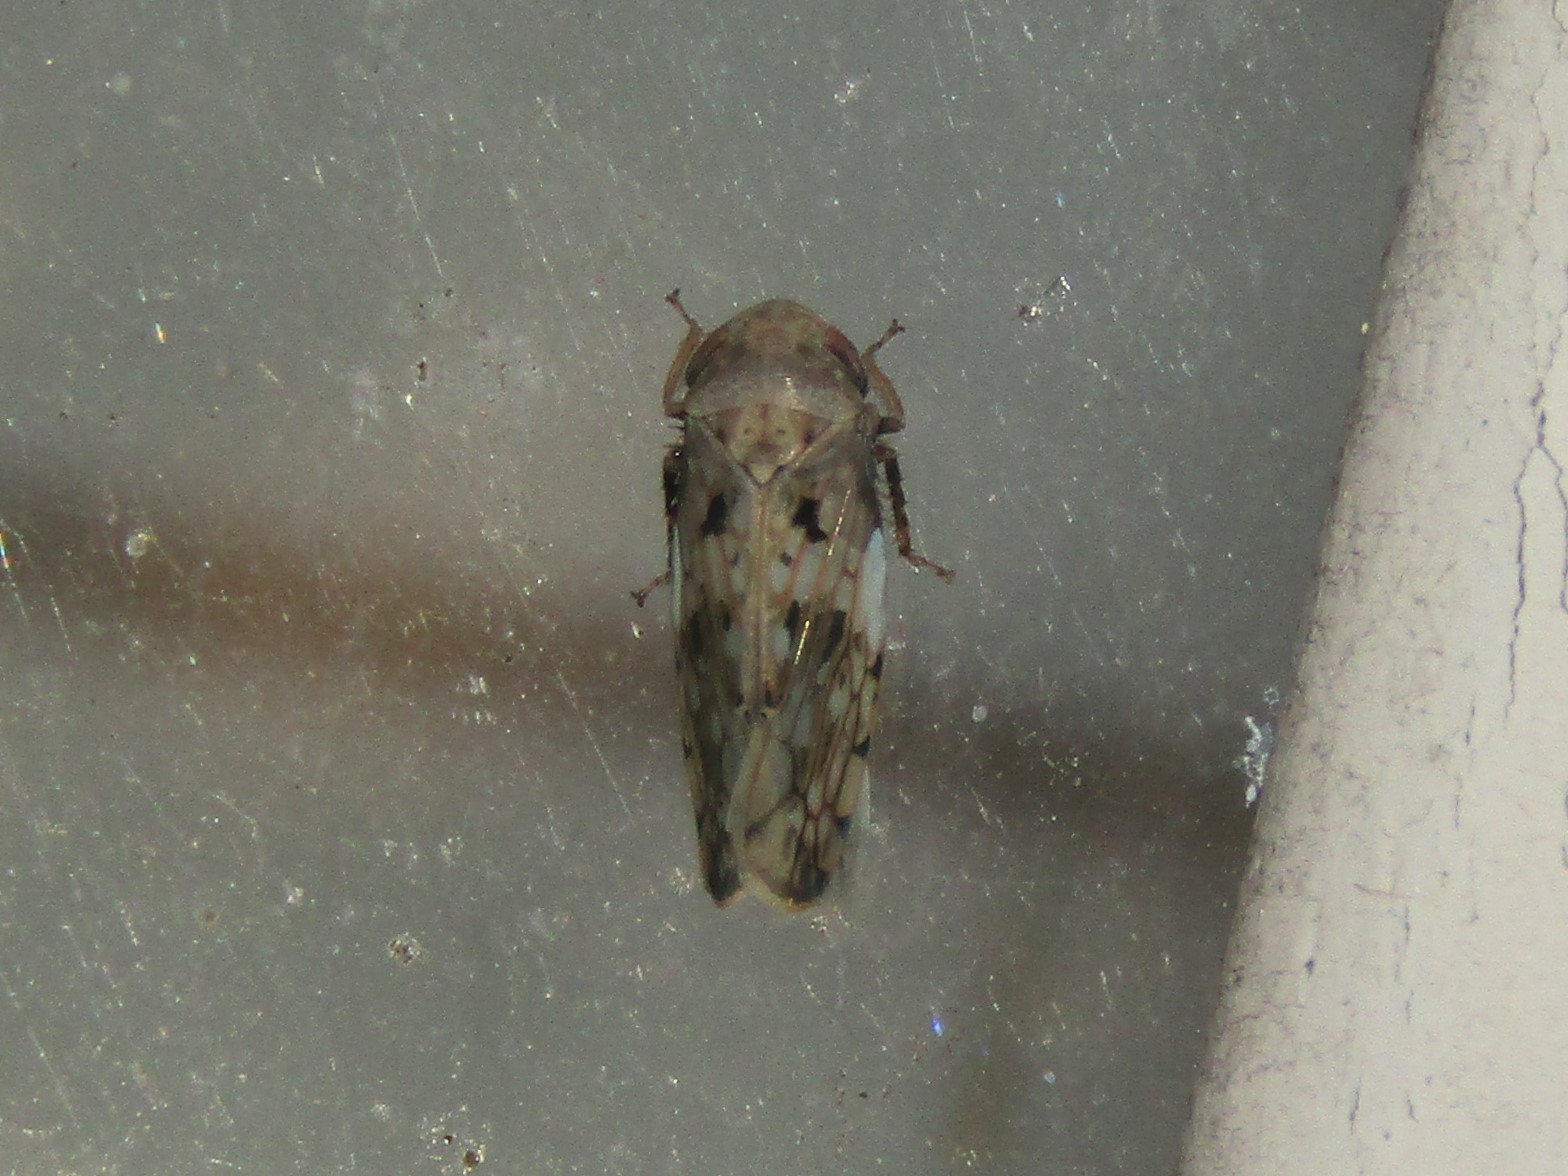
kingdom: Animalia
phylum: Arthropoda
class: Insecta
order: Hemiptera
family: Cicadellidae
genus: Menosoma
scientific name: Menosoma cinctum
